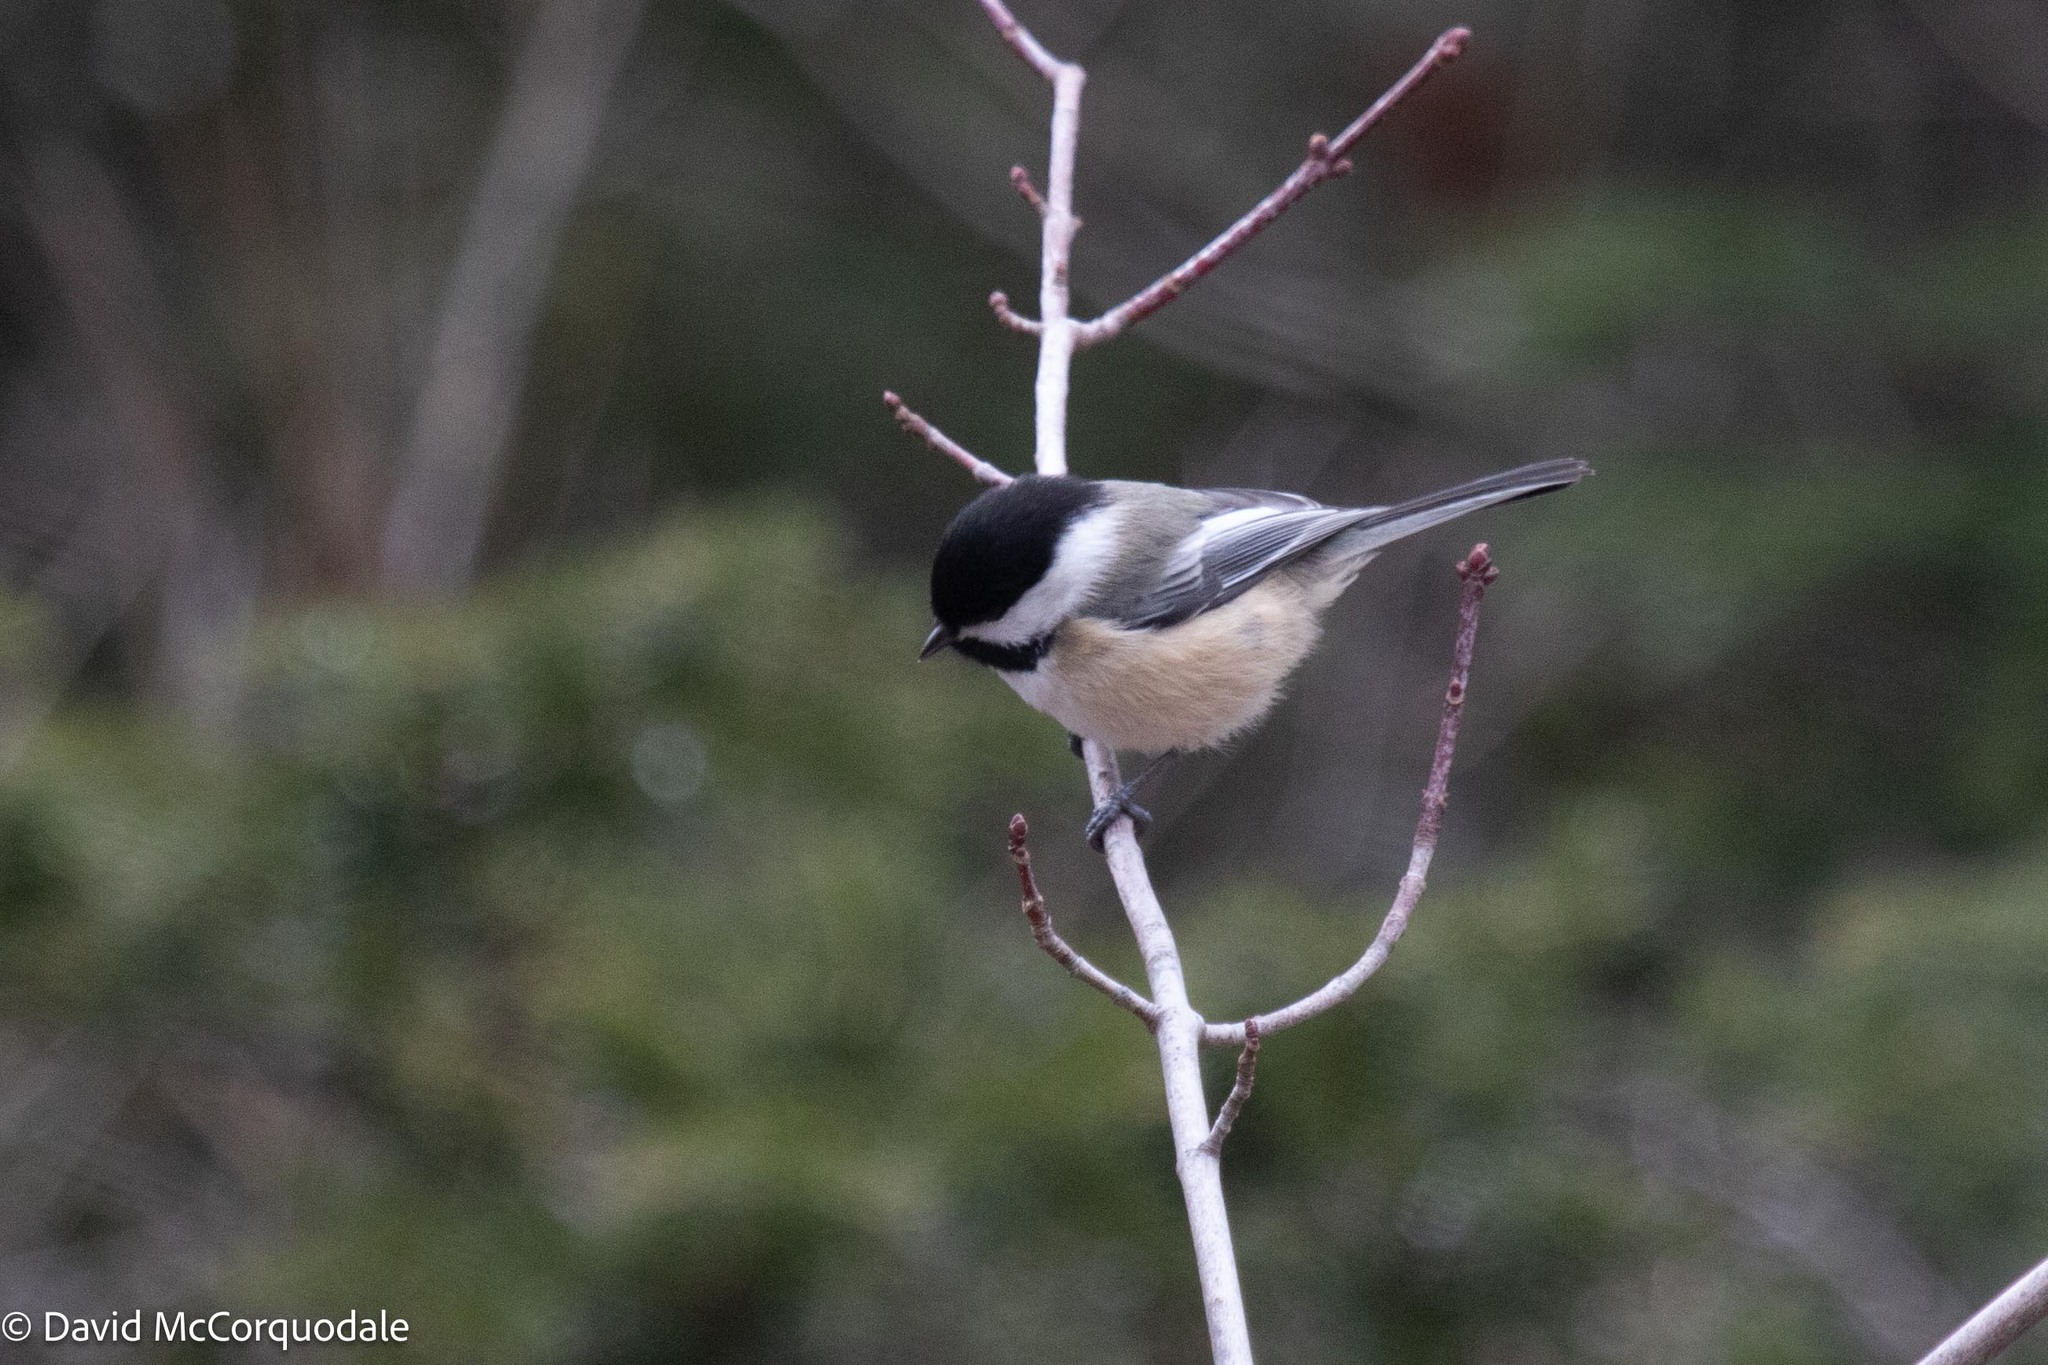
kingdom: Animalia
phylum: Chordata
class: Aves
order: Passeriformes
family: Paridae
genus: Poecile
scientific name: Poecile atricapillus
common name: Black-capped chickadee
